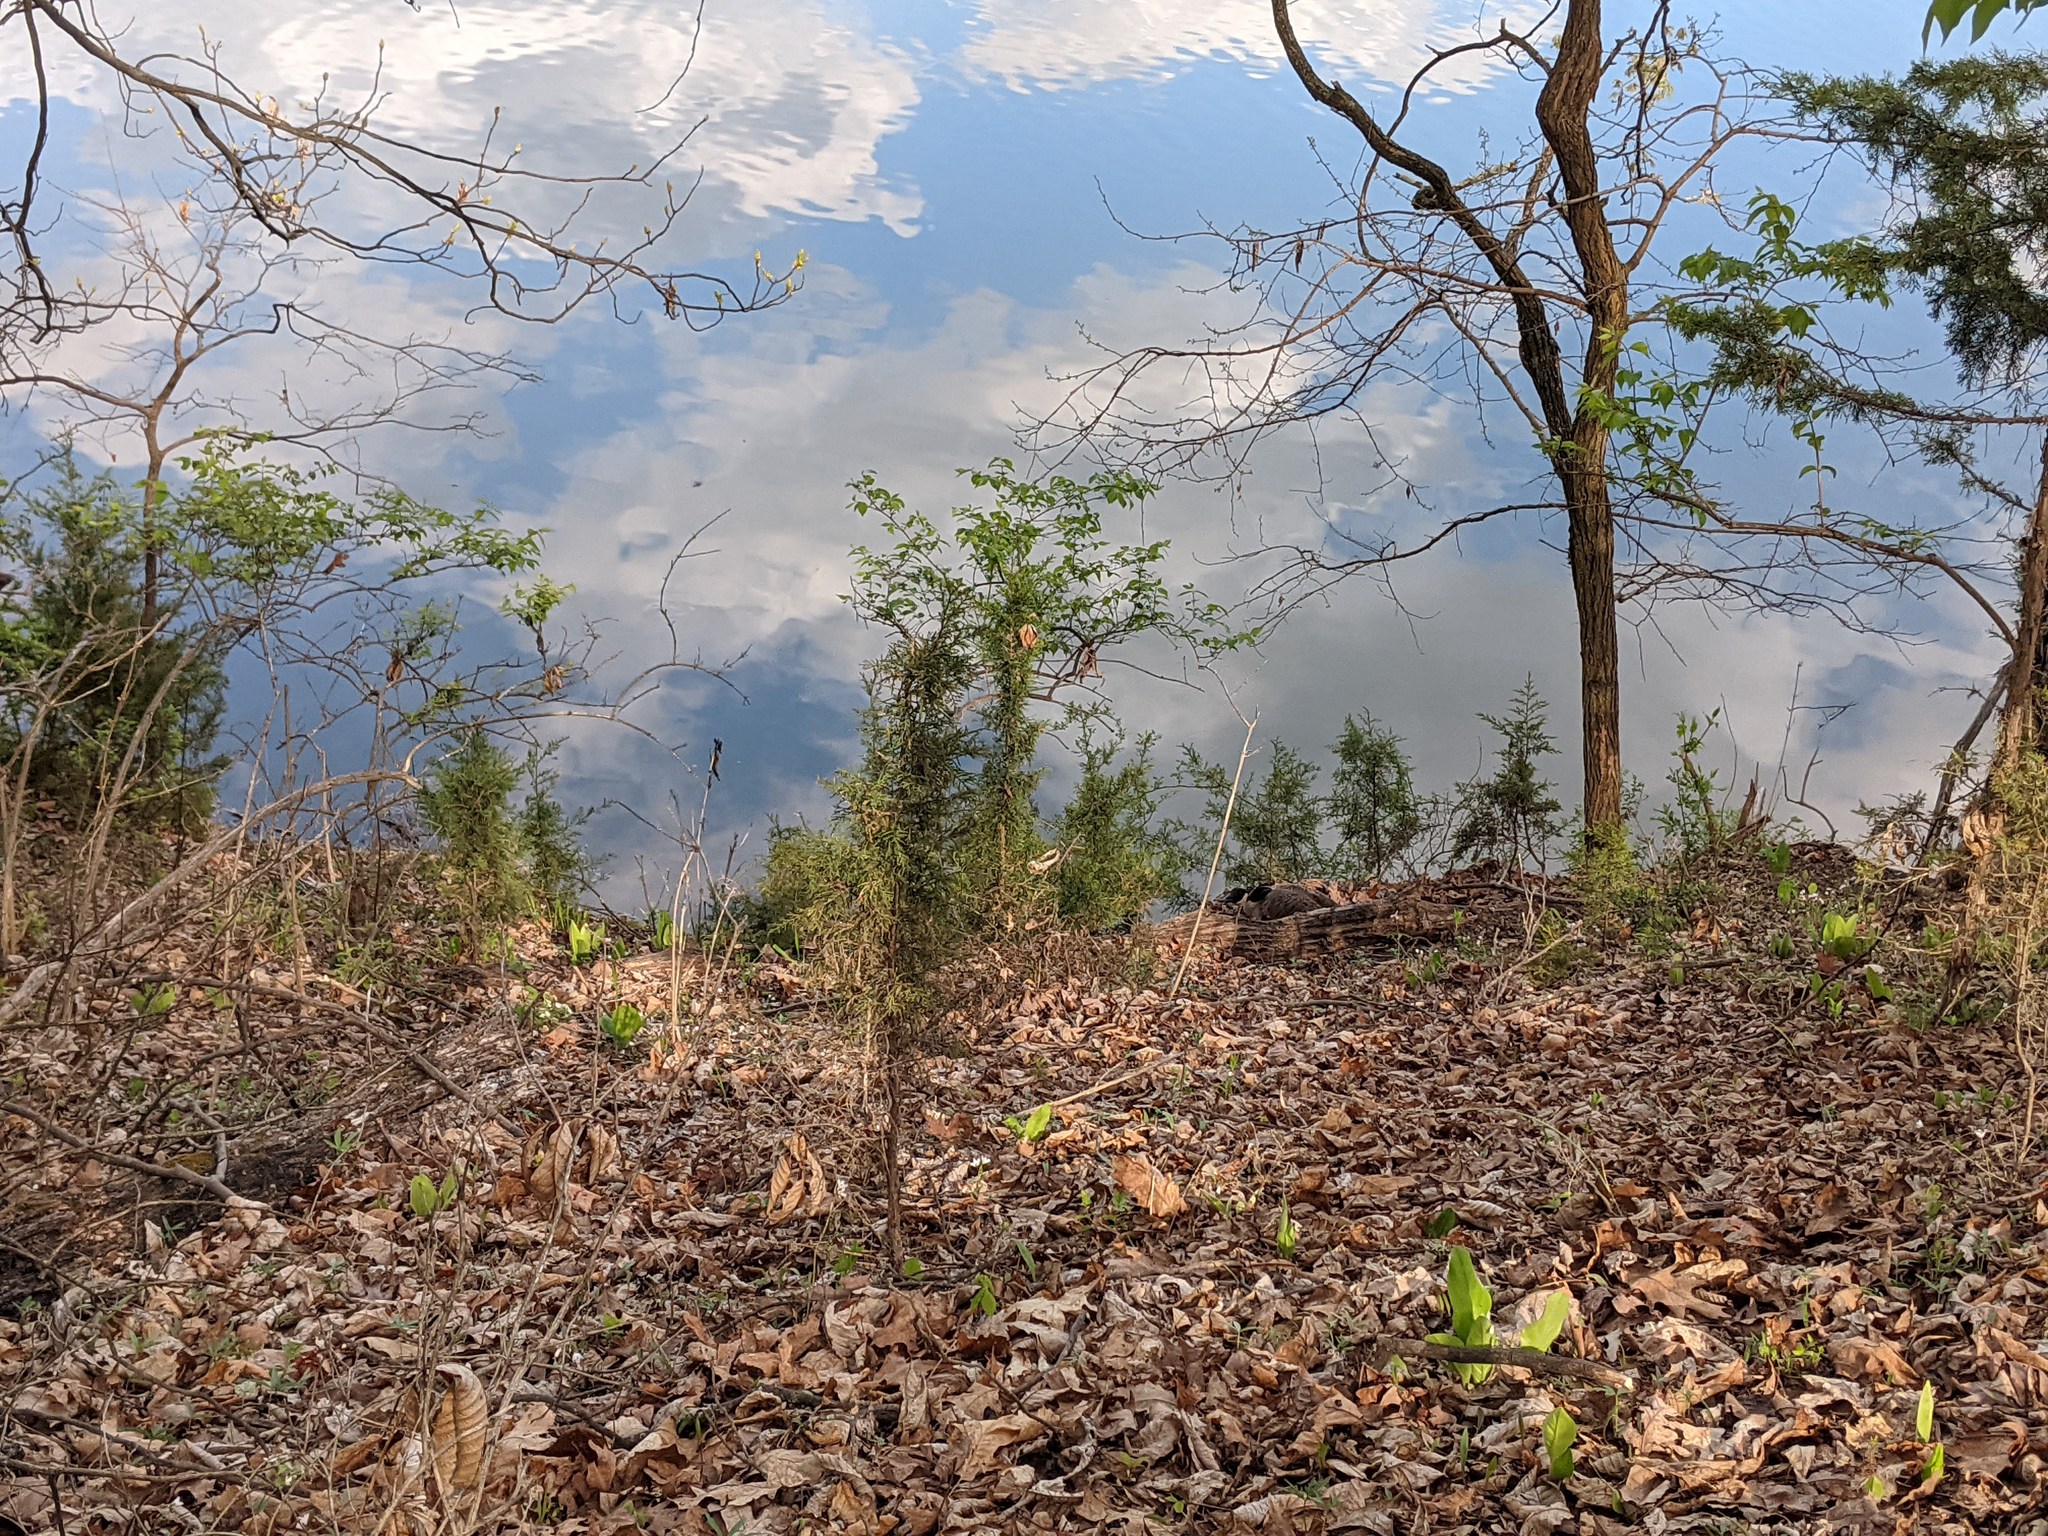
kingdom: Animalia
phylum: Chordata
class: Aves
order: Anseriformes
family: Anatidae
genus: Branta
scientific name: Branta canadensis
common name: Canada goose
